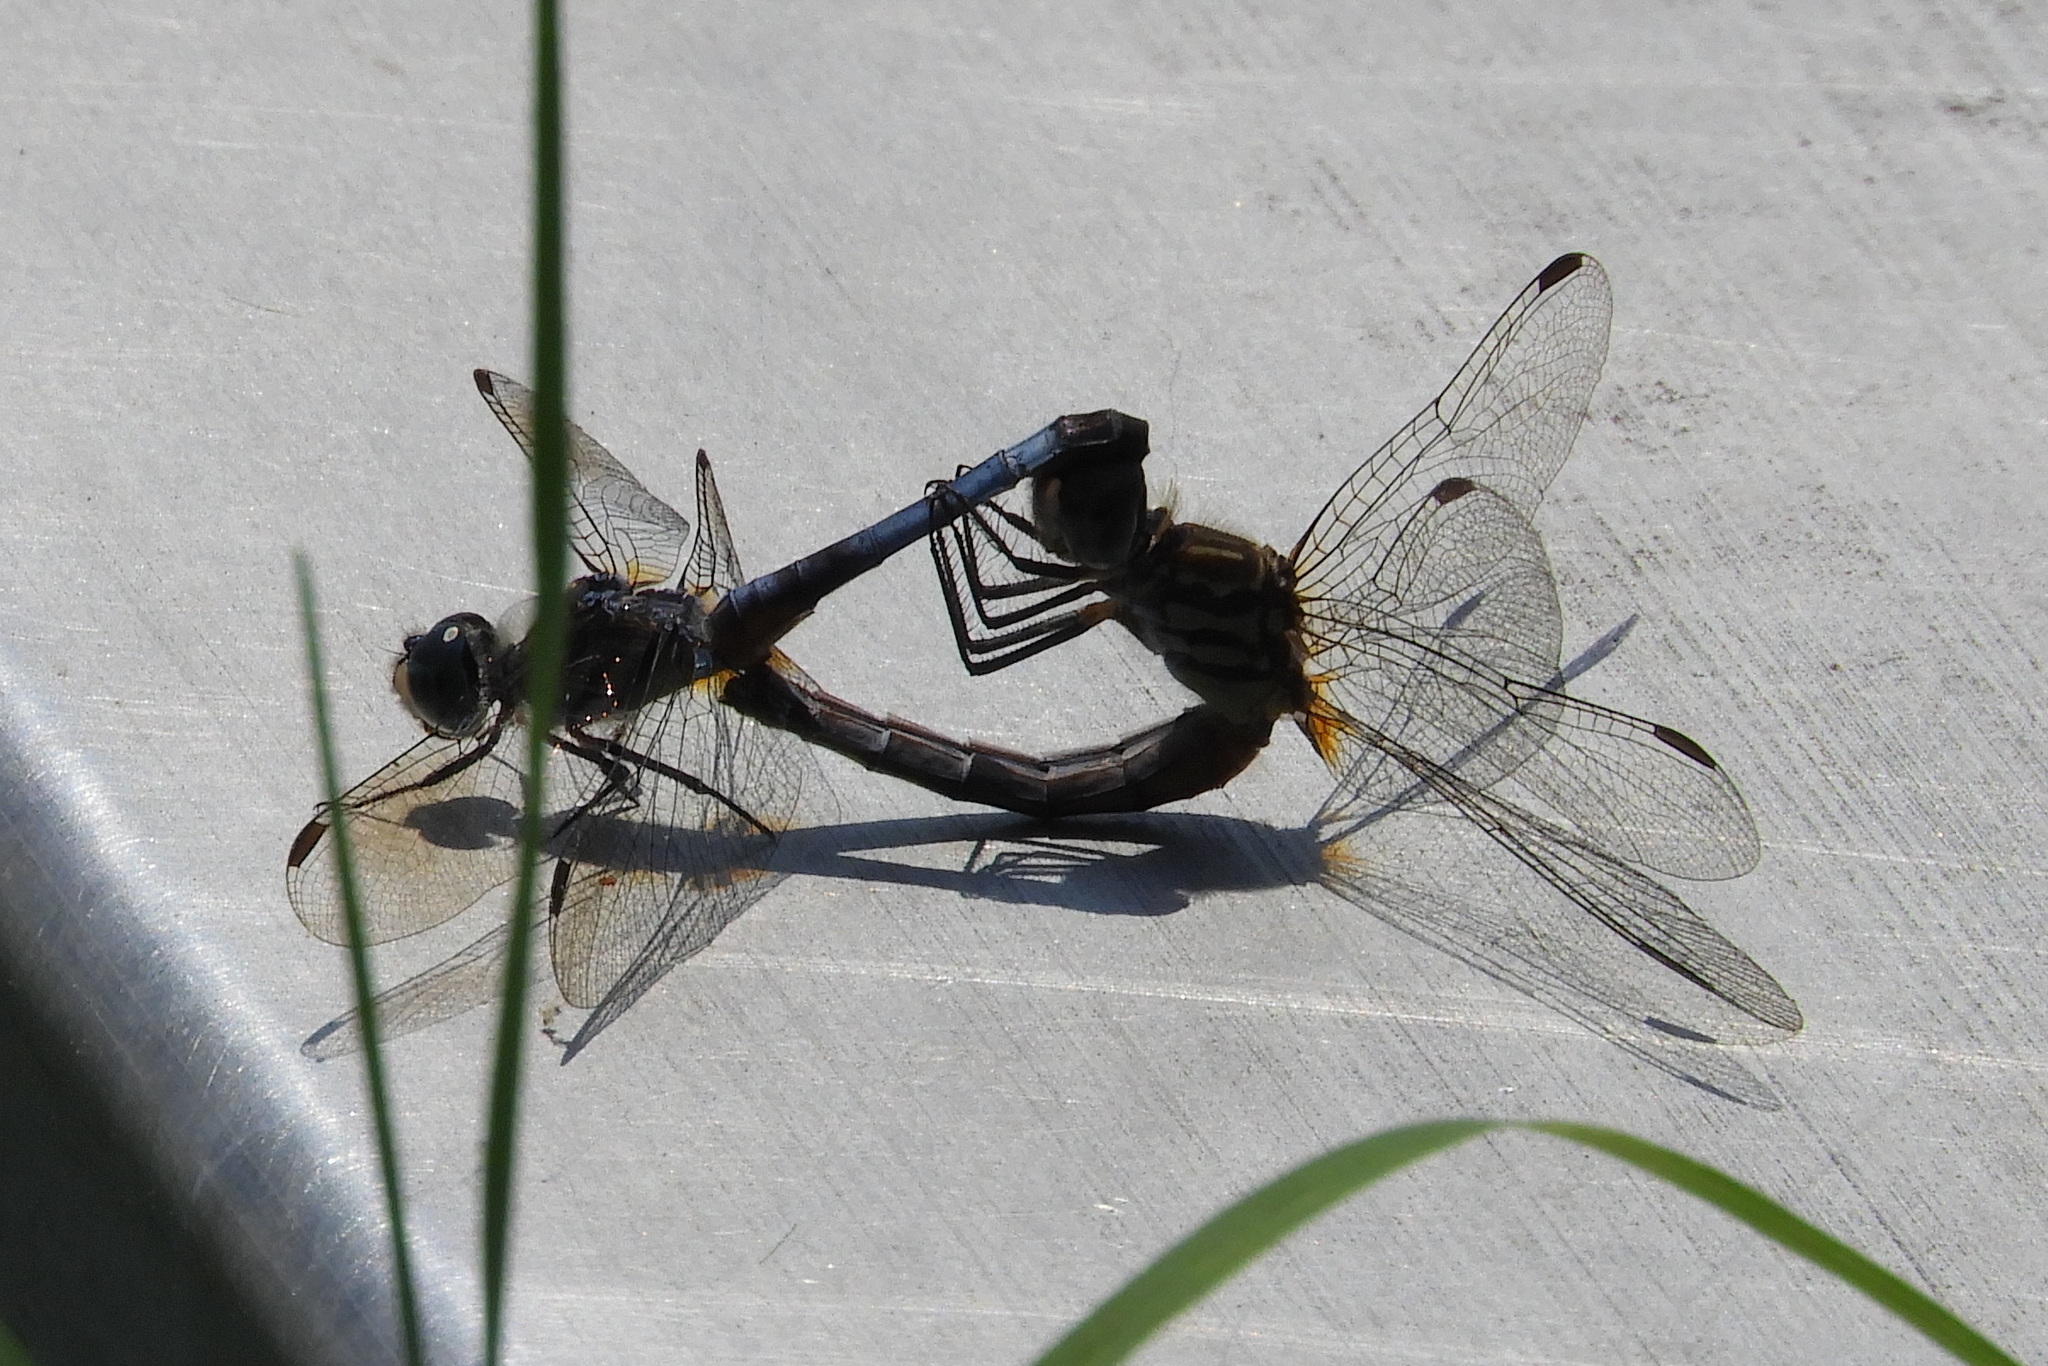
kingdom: Animalia
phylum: Arthropoda
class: Insecta
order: Odonata
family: Libellulidae
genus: Pachydiplax
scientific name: Pachydiplax longipennis
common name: Blue dasher
